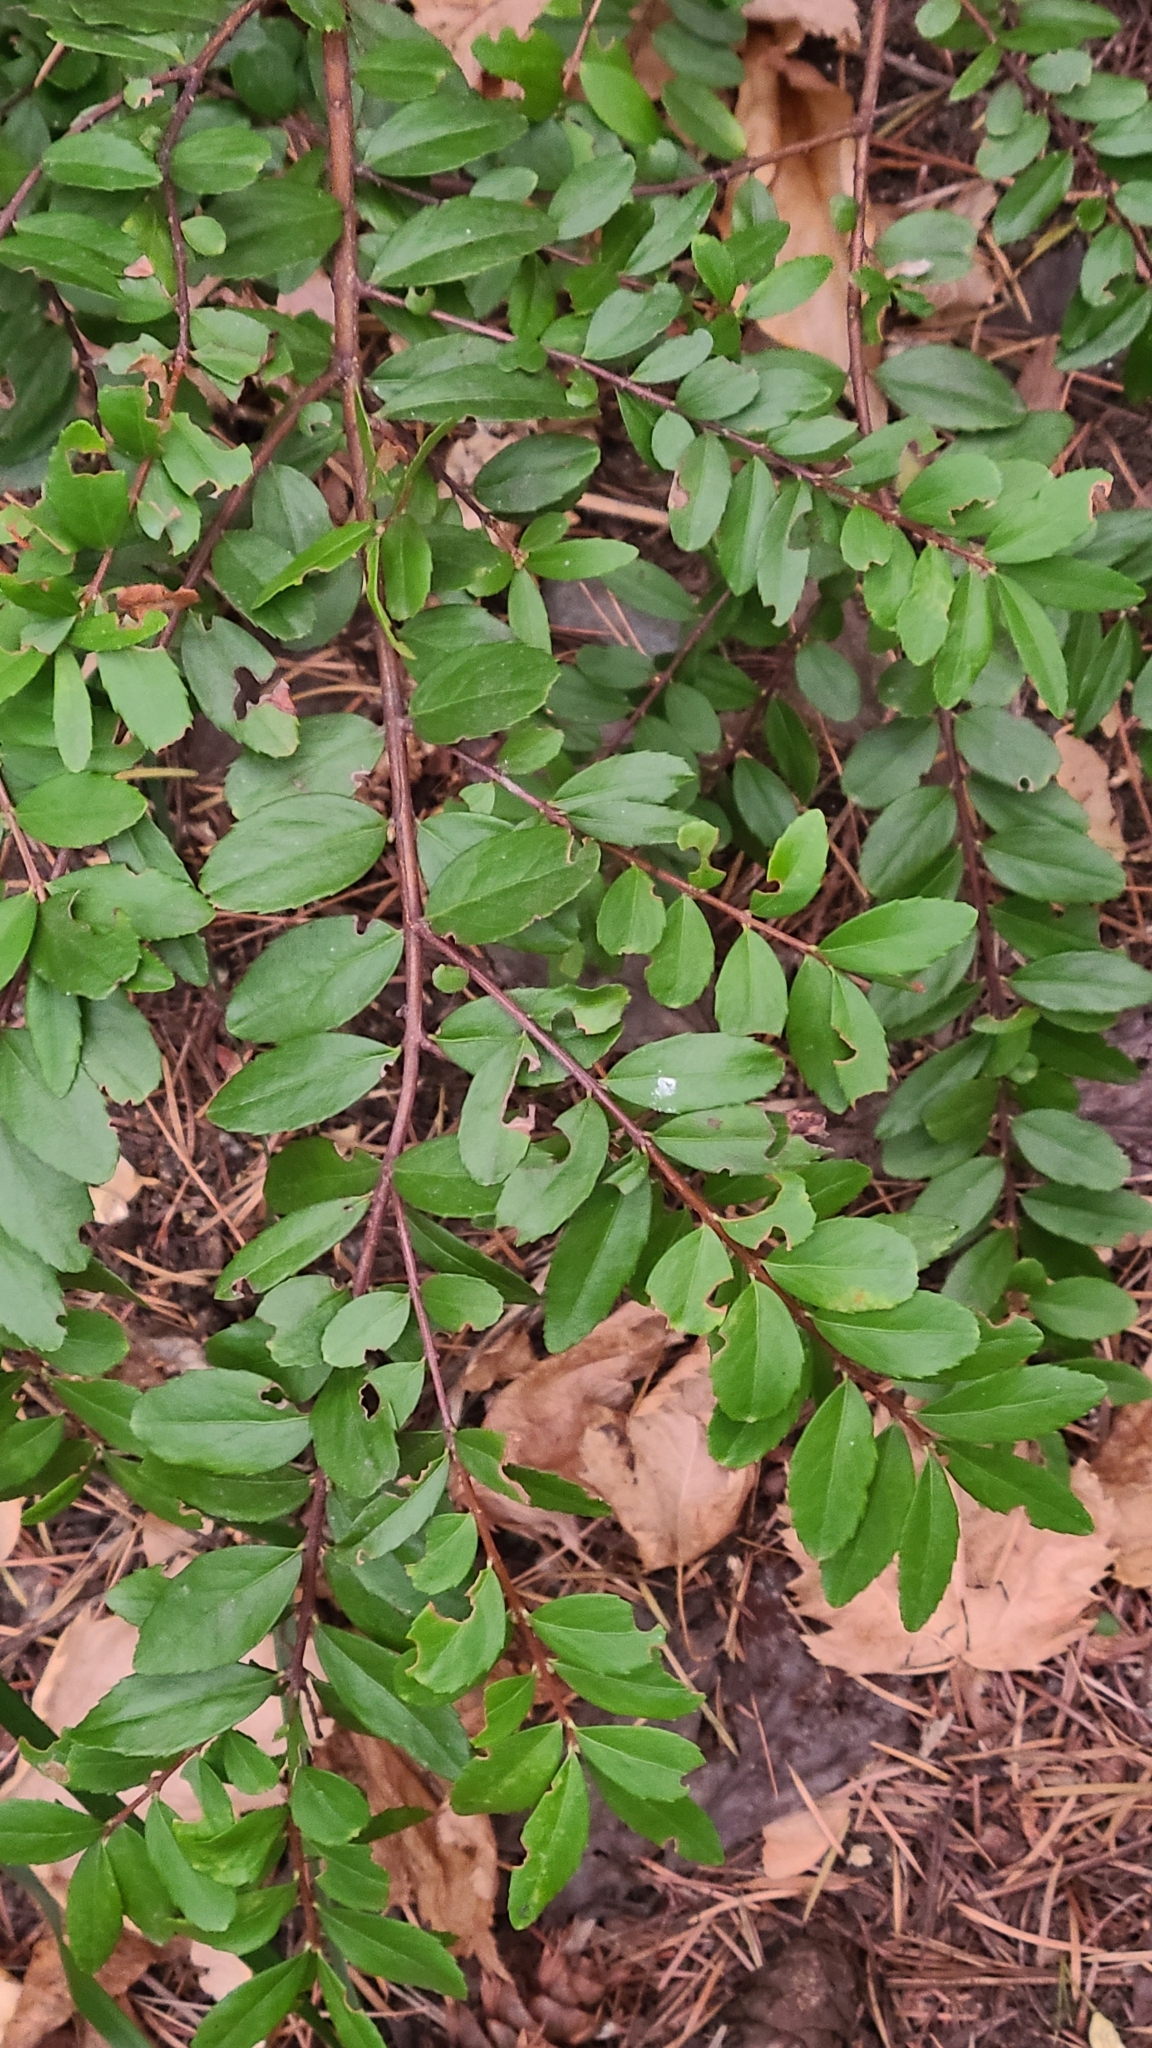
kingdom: Plantae
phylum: Tracheophyta
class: Magnoliopsida
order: Celastrales
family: Celastraceae
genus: Paxistima
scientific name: Paxistima myrsinites
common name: Mountain-lover
